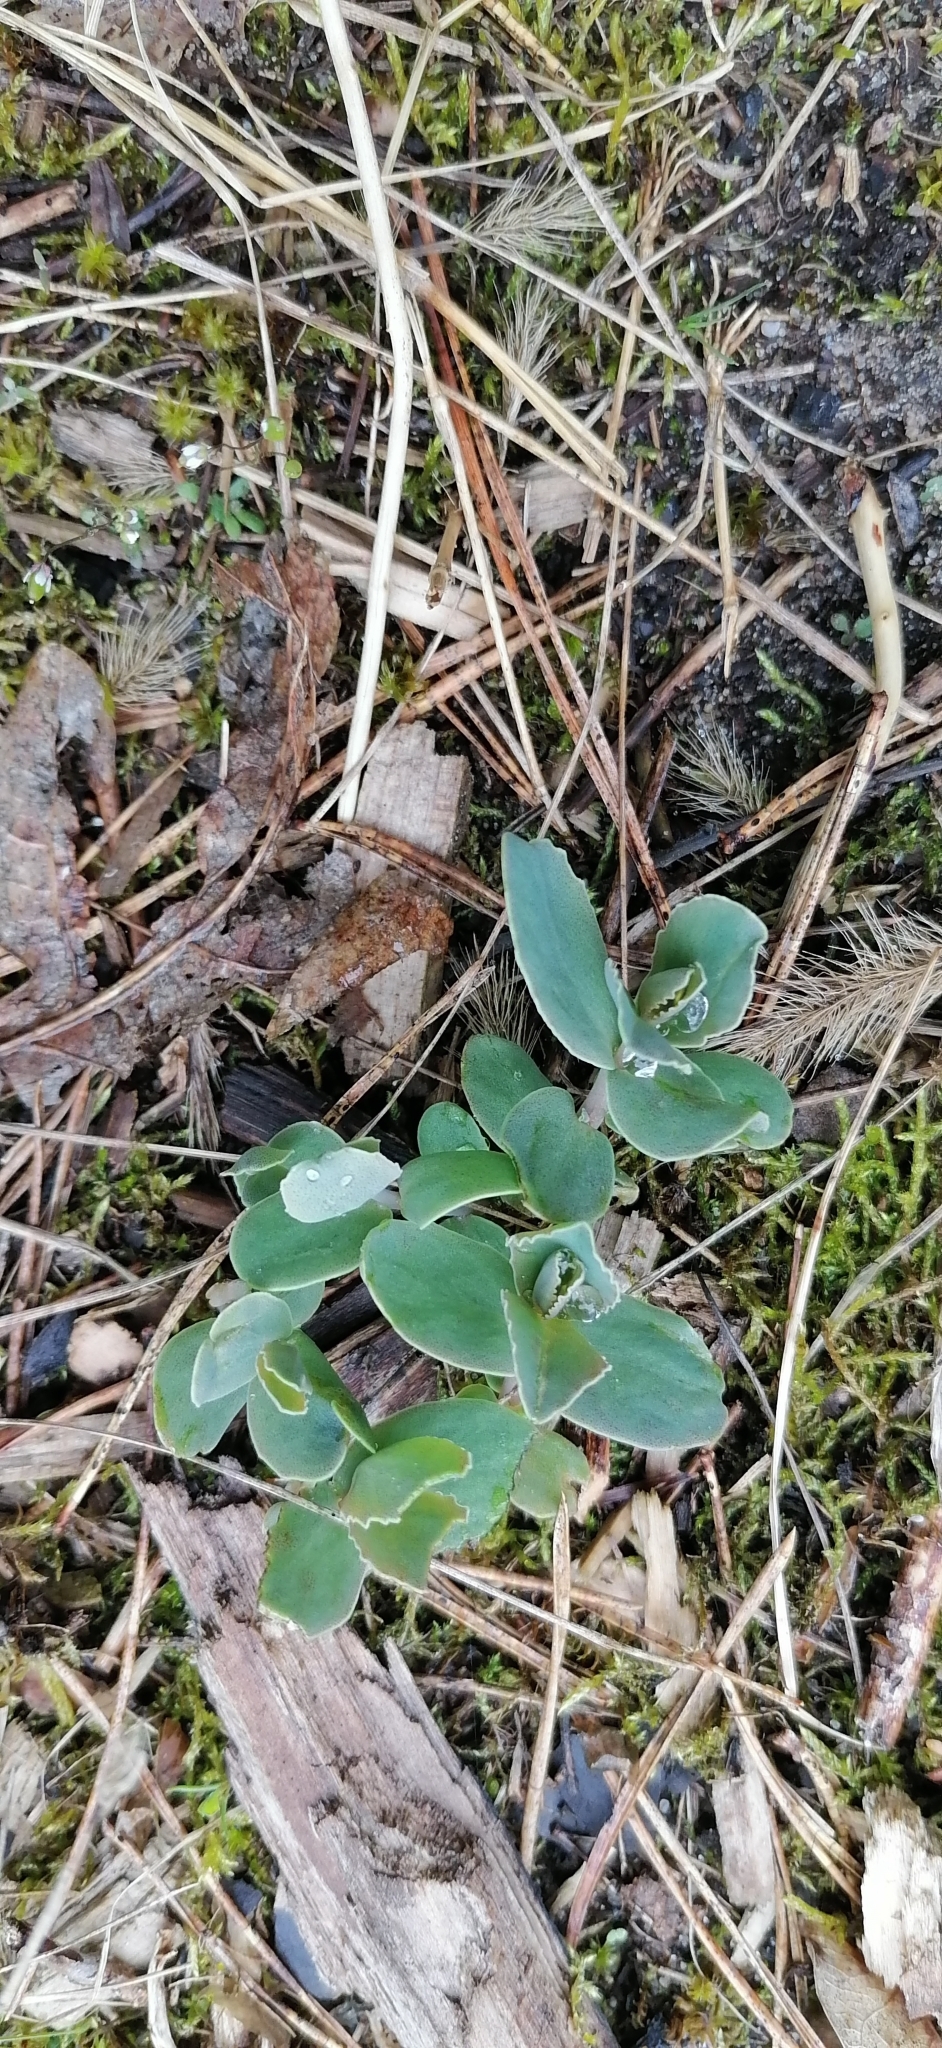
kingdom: Plantae
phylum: Tracheophyta
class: Magnoliopsida
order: Saxifragales
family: Crassulaceae
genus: Hylotelephium
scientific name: Hylotelephium maximum
